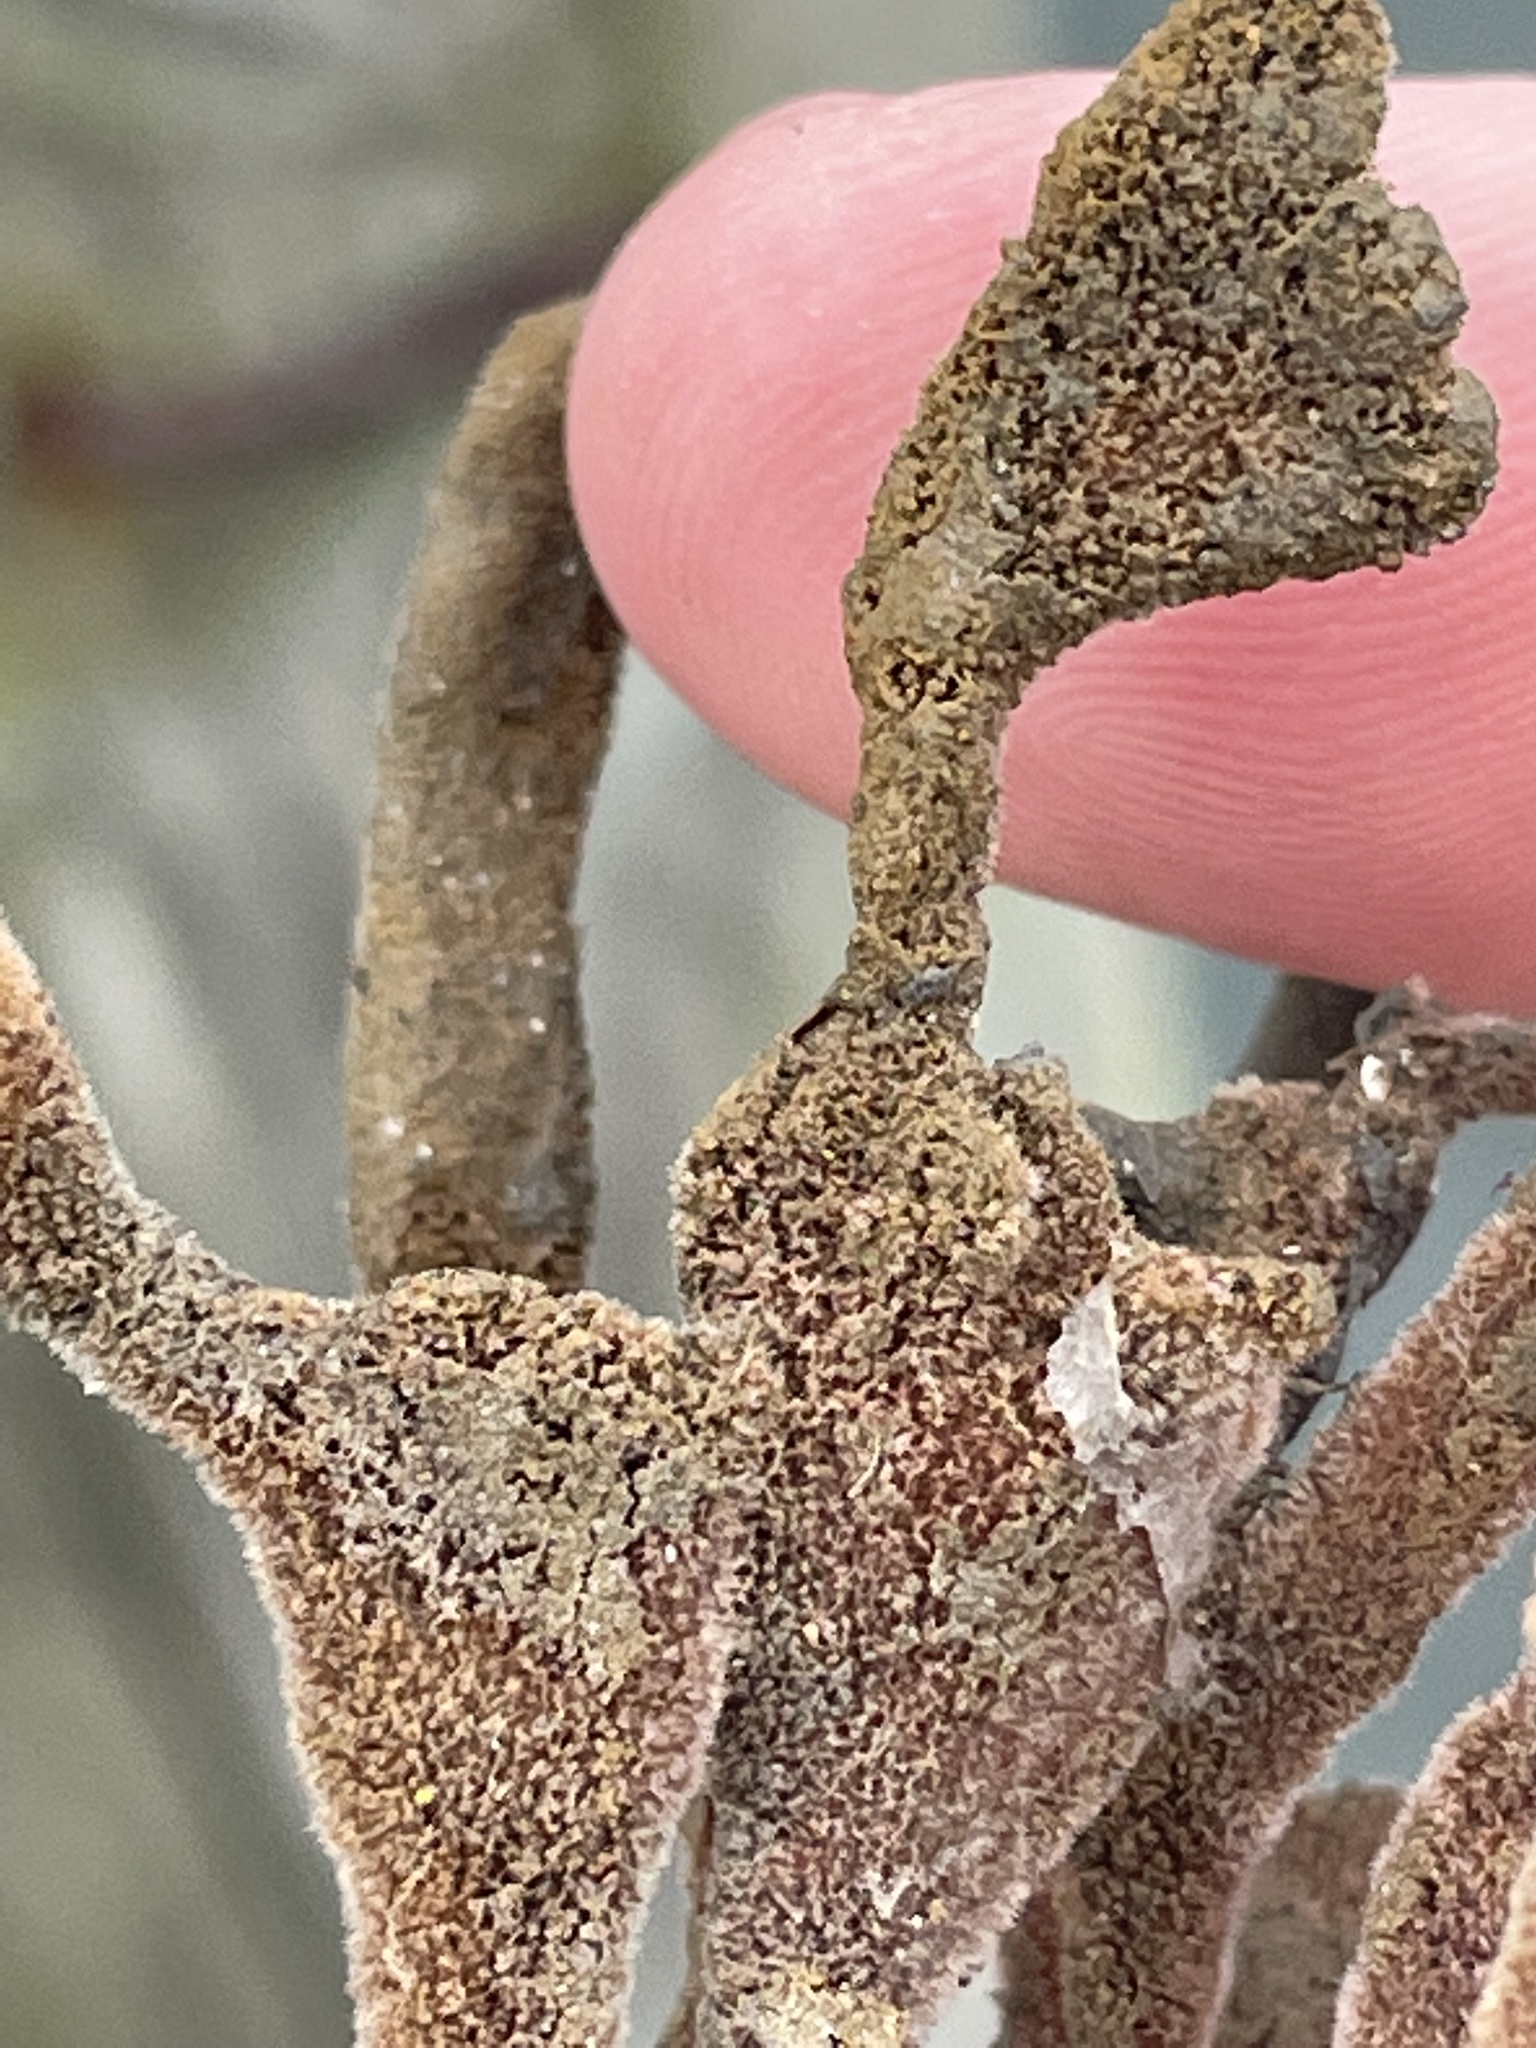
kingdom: Animalia
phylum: Porifera
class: Demospongiae
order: Poecilosclerida
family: Microcionidae
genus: Clathria
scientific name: Clathria prolifera
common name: Red beard sponge
